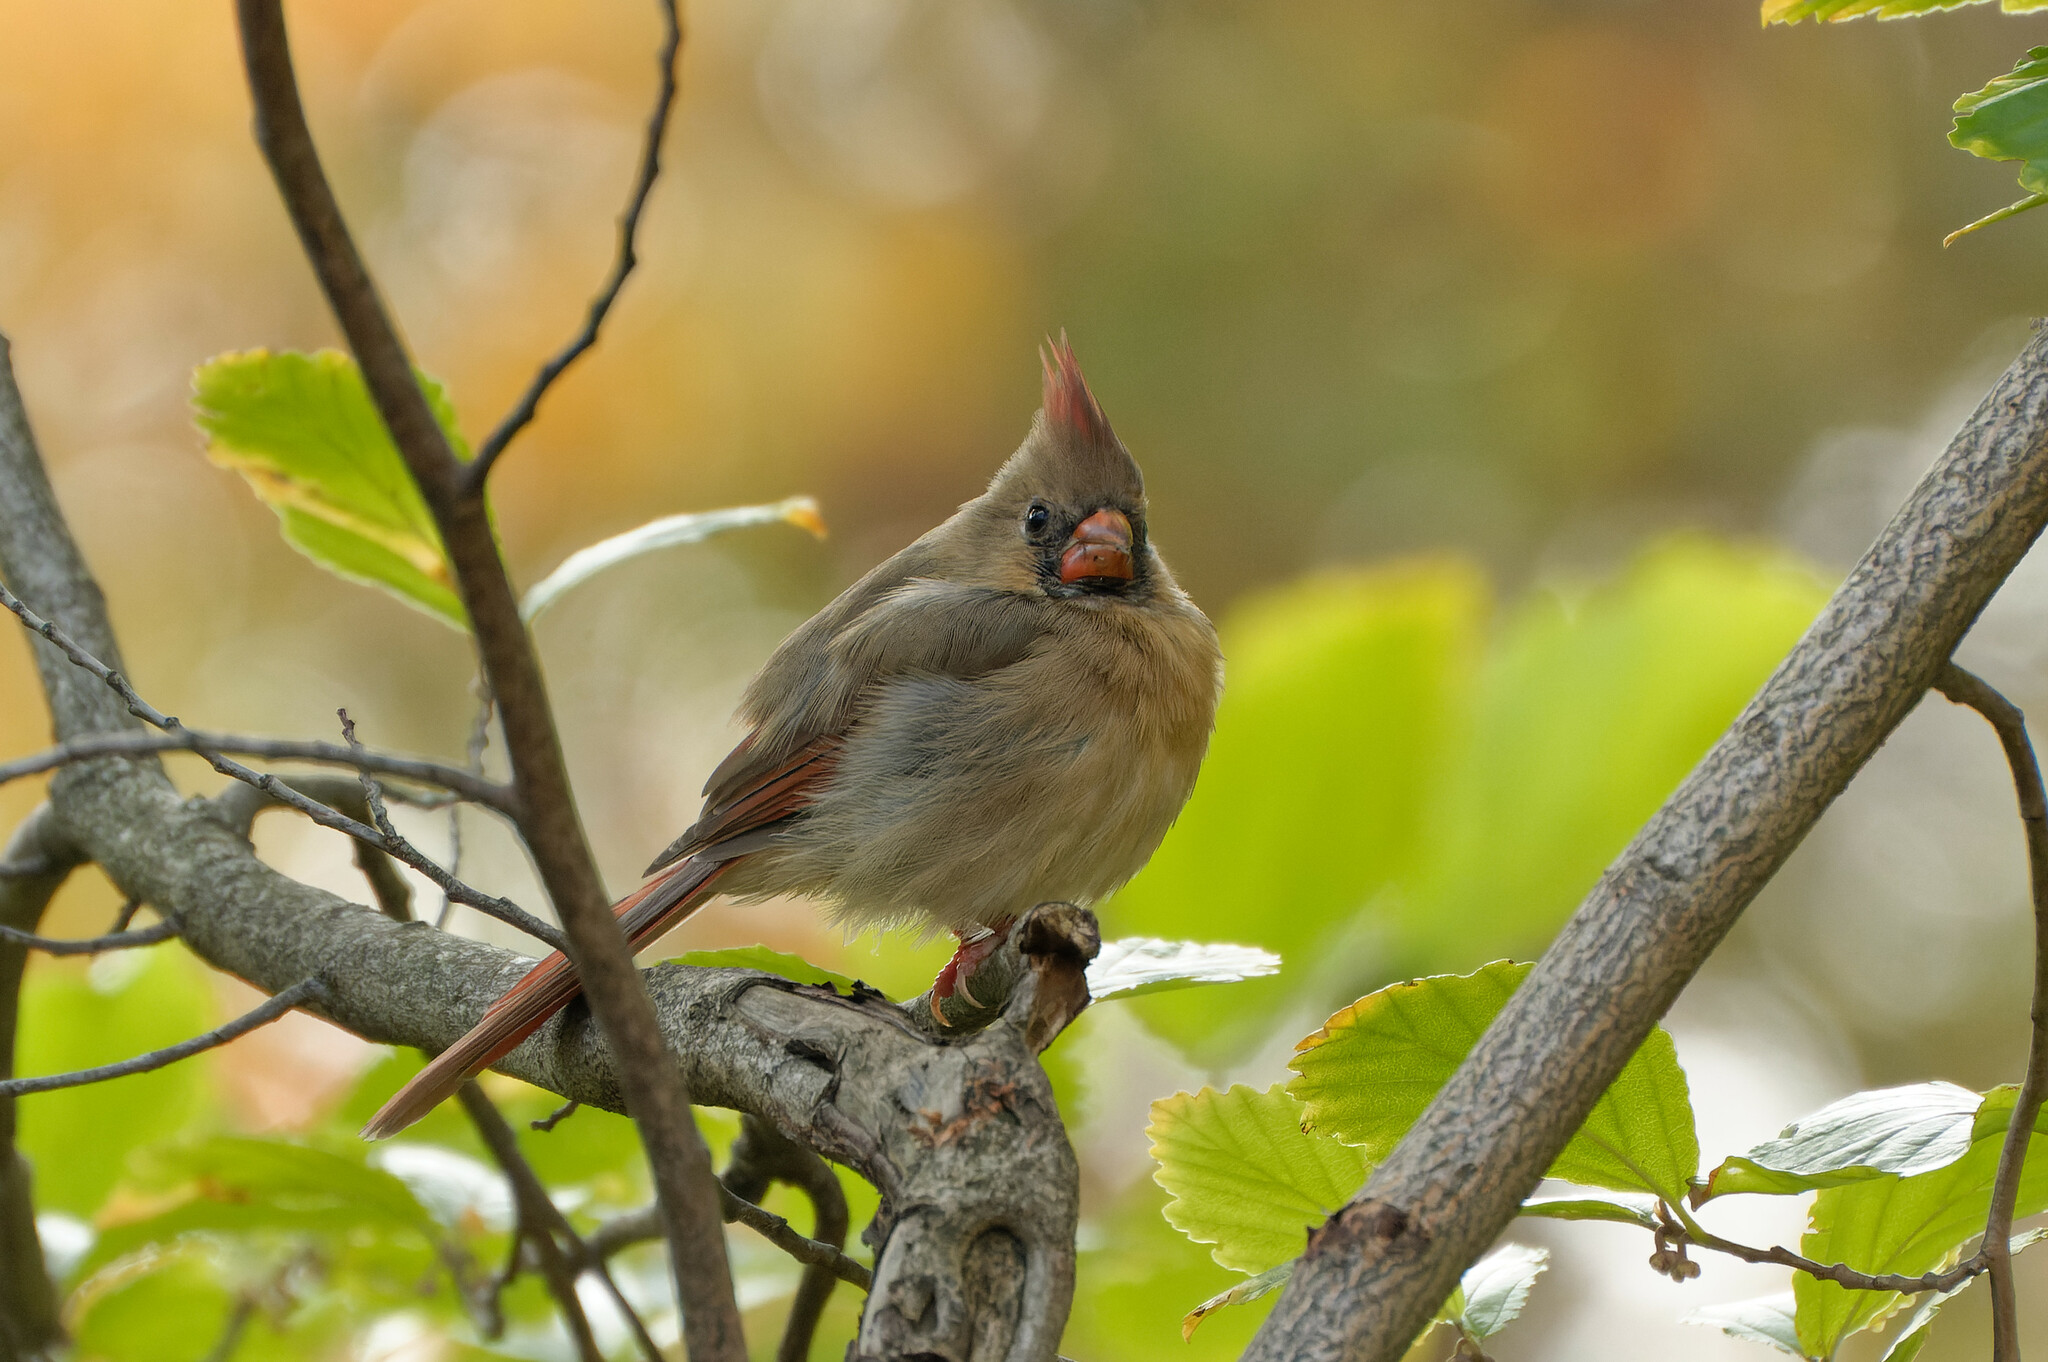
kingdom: Animalia
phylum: Chordata
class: Aves
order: Passeriformes
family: Cardinalidae
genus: Cardinalis
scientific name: Cardinalis cardinalis
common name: Northern cardinal
